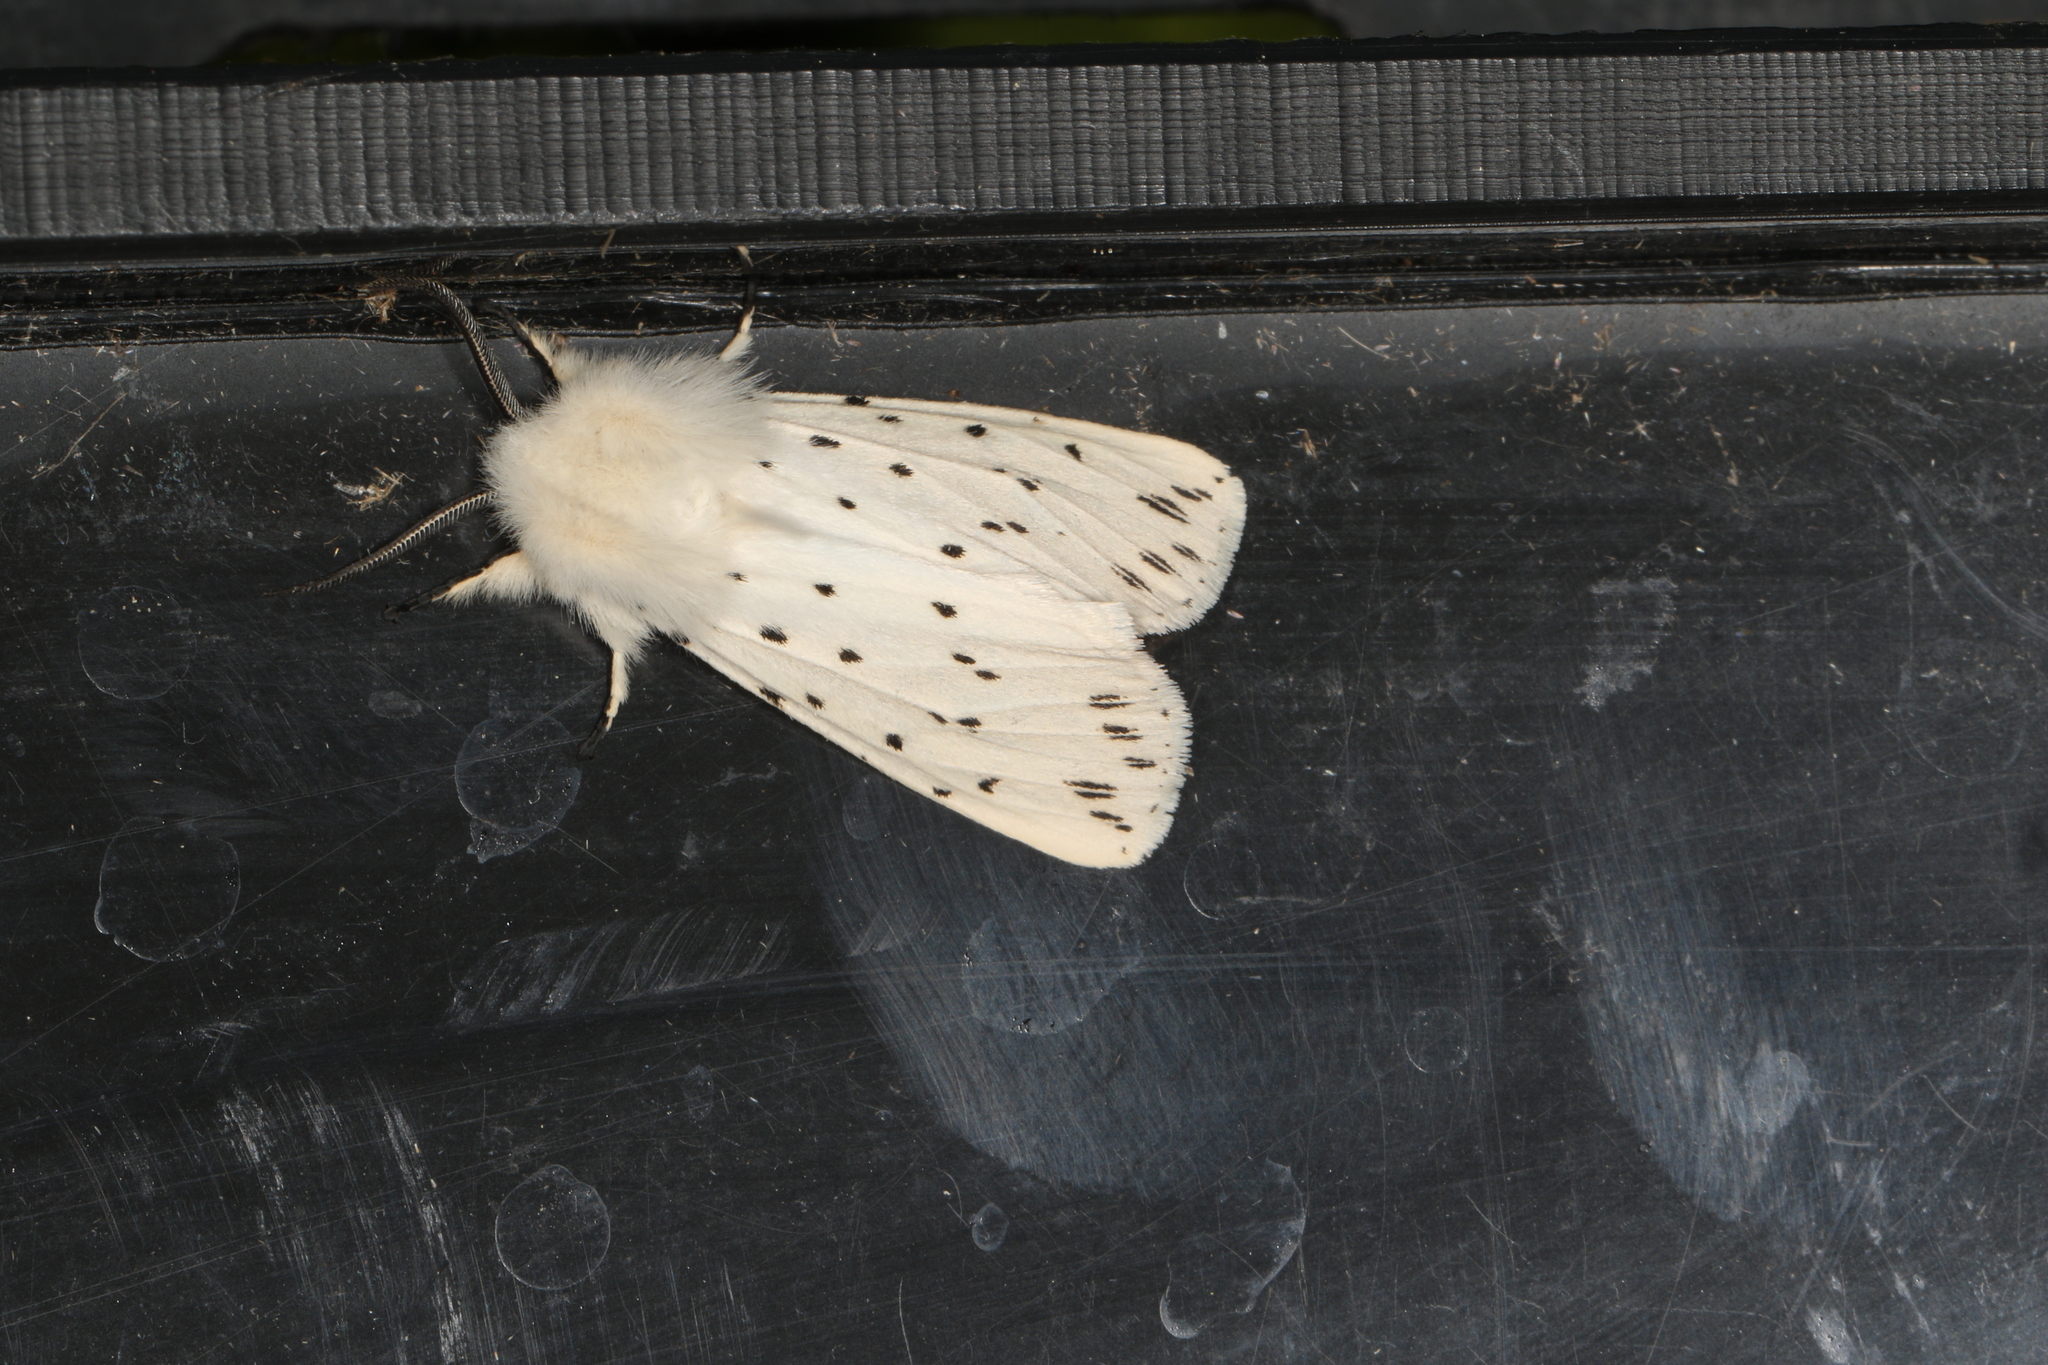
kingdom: Animalia
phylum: Arthropoda
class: Insecta
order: Lepidoptera
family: Erebidae
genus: Spilosoma
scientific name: Spilosoma lubricipeda
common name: White ermine
